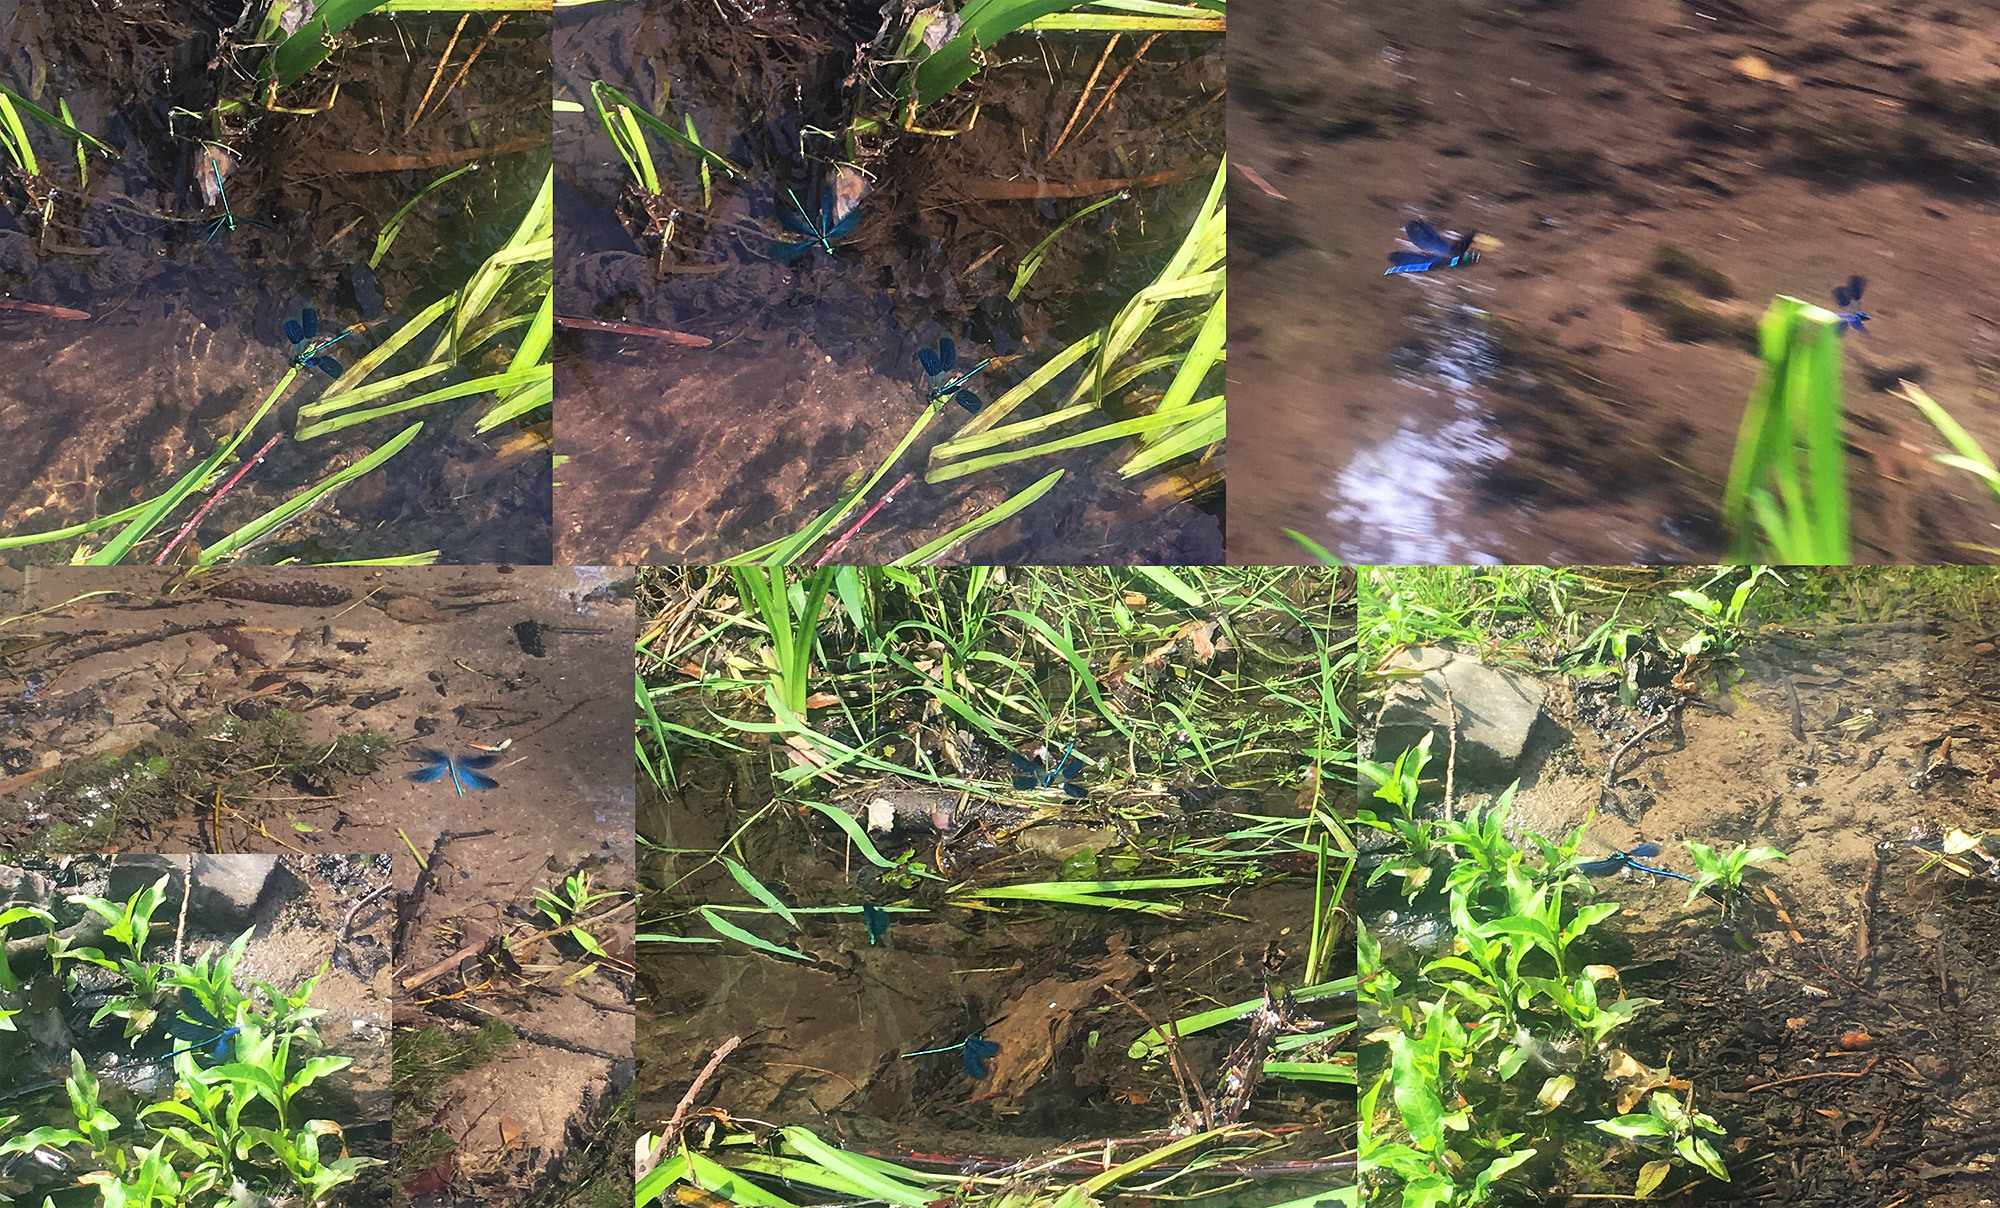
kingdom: Animalia
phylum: Arthropoda
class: Insecta
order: Odonata
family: Calopterygidae
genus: Calopteryx
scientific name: Calopteryx virgo
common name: Beautiful demoiselle
